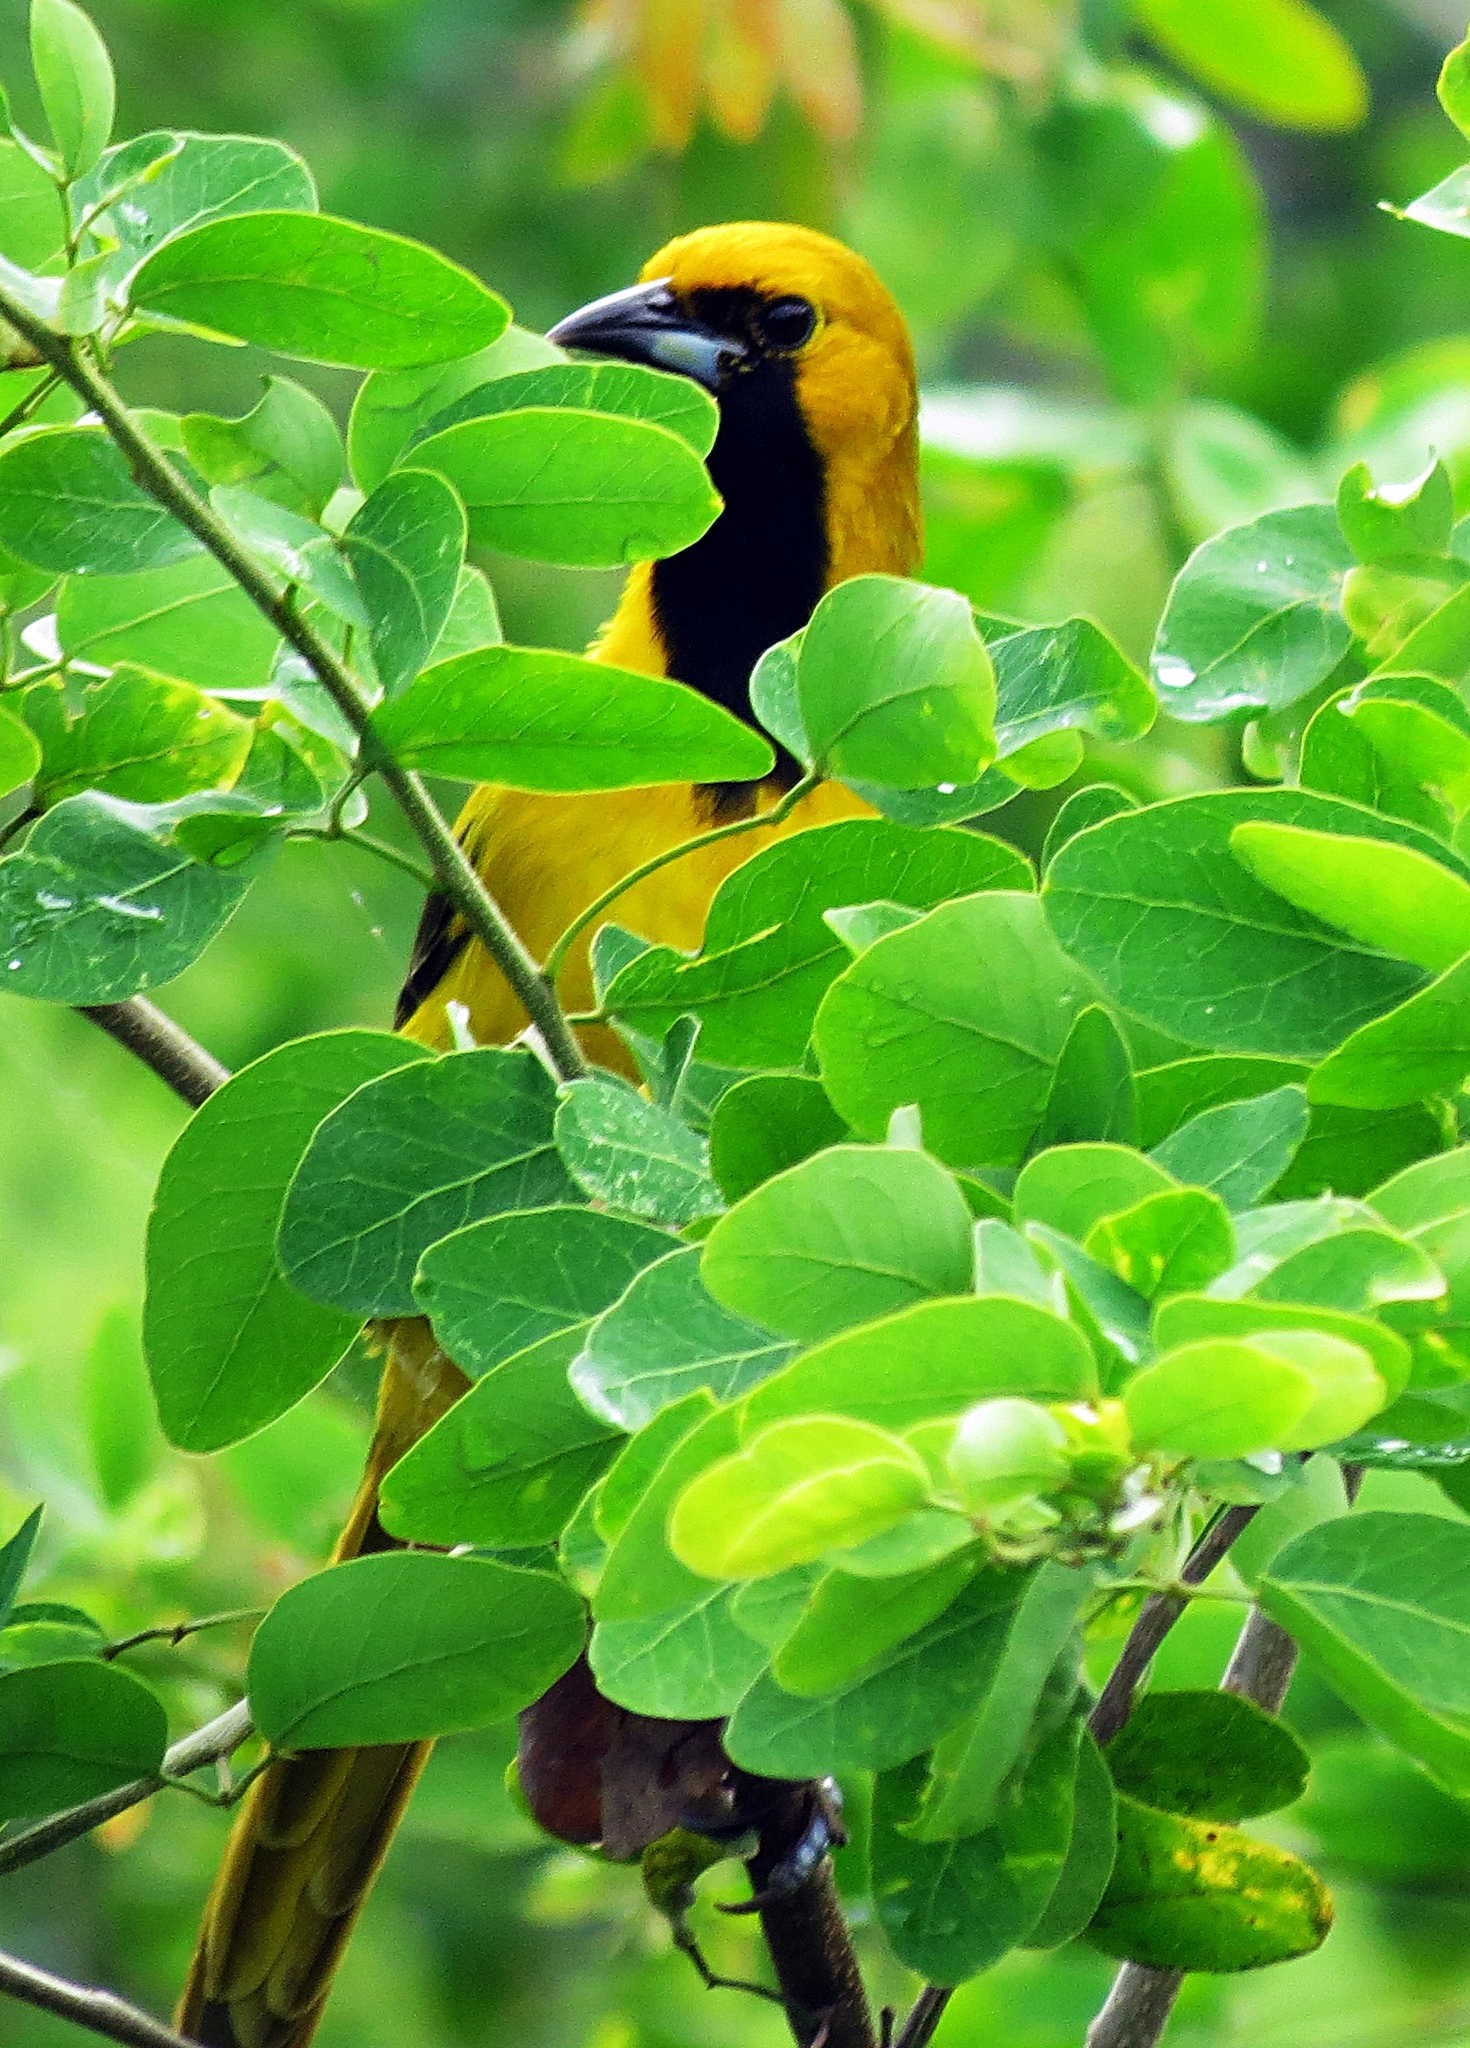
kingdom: Animalia
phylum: Chordata
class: Aves
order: Passeriformes
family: Icteridae
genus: Icterus
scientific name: Icterus mesomelas
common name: Yellow-tailed oriole
